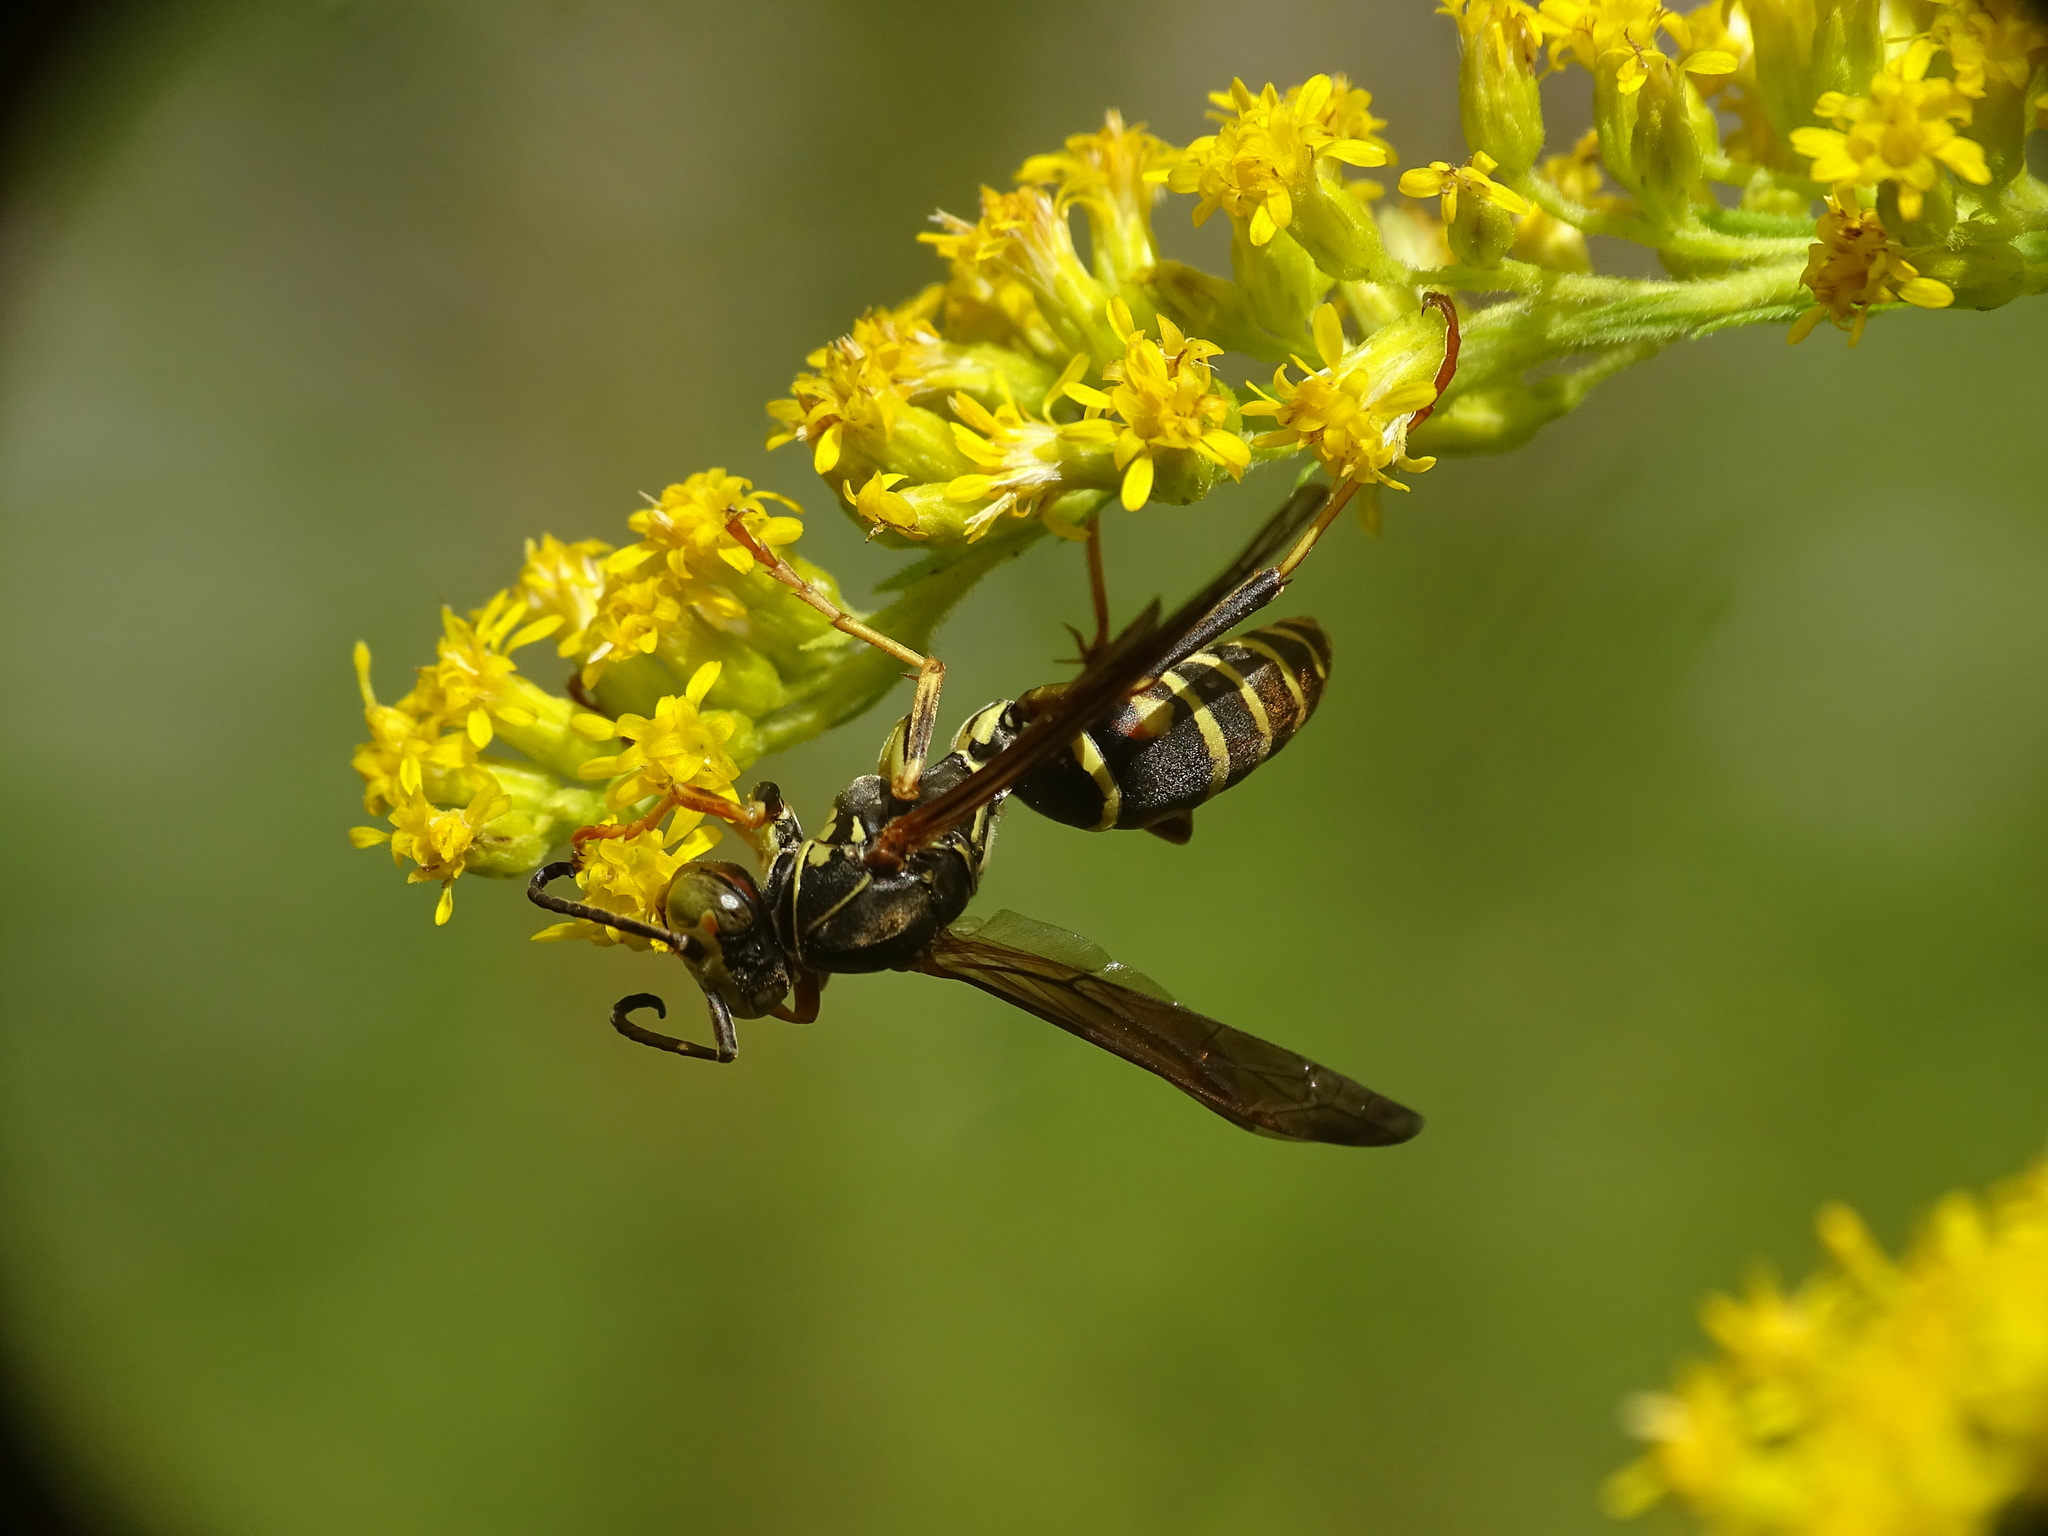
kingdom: Animalia
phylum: Arthropoda
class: Insecta
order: Hymenoptera
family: Eumenidae
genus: Polistes
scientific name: Polistes fuscatus
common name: Dark paper wasp
